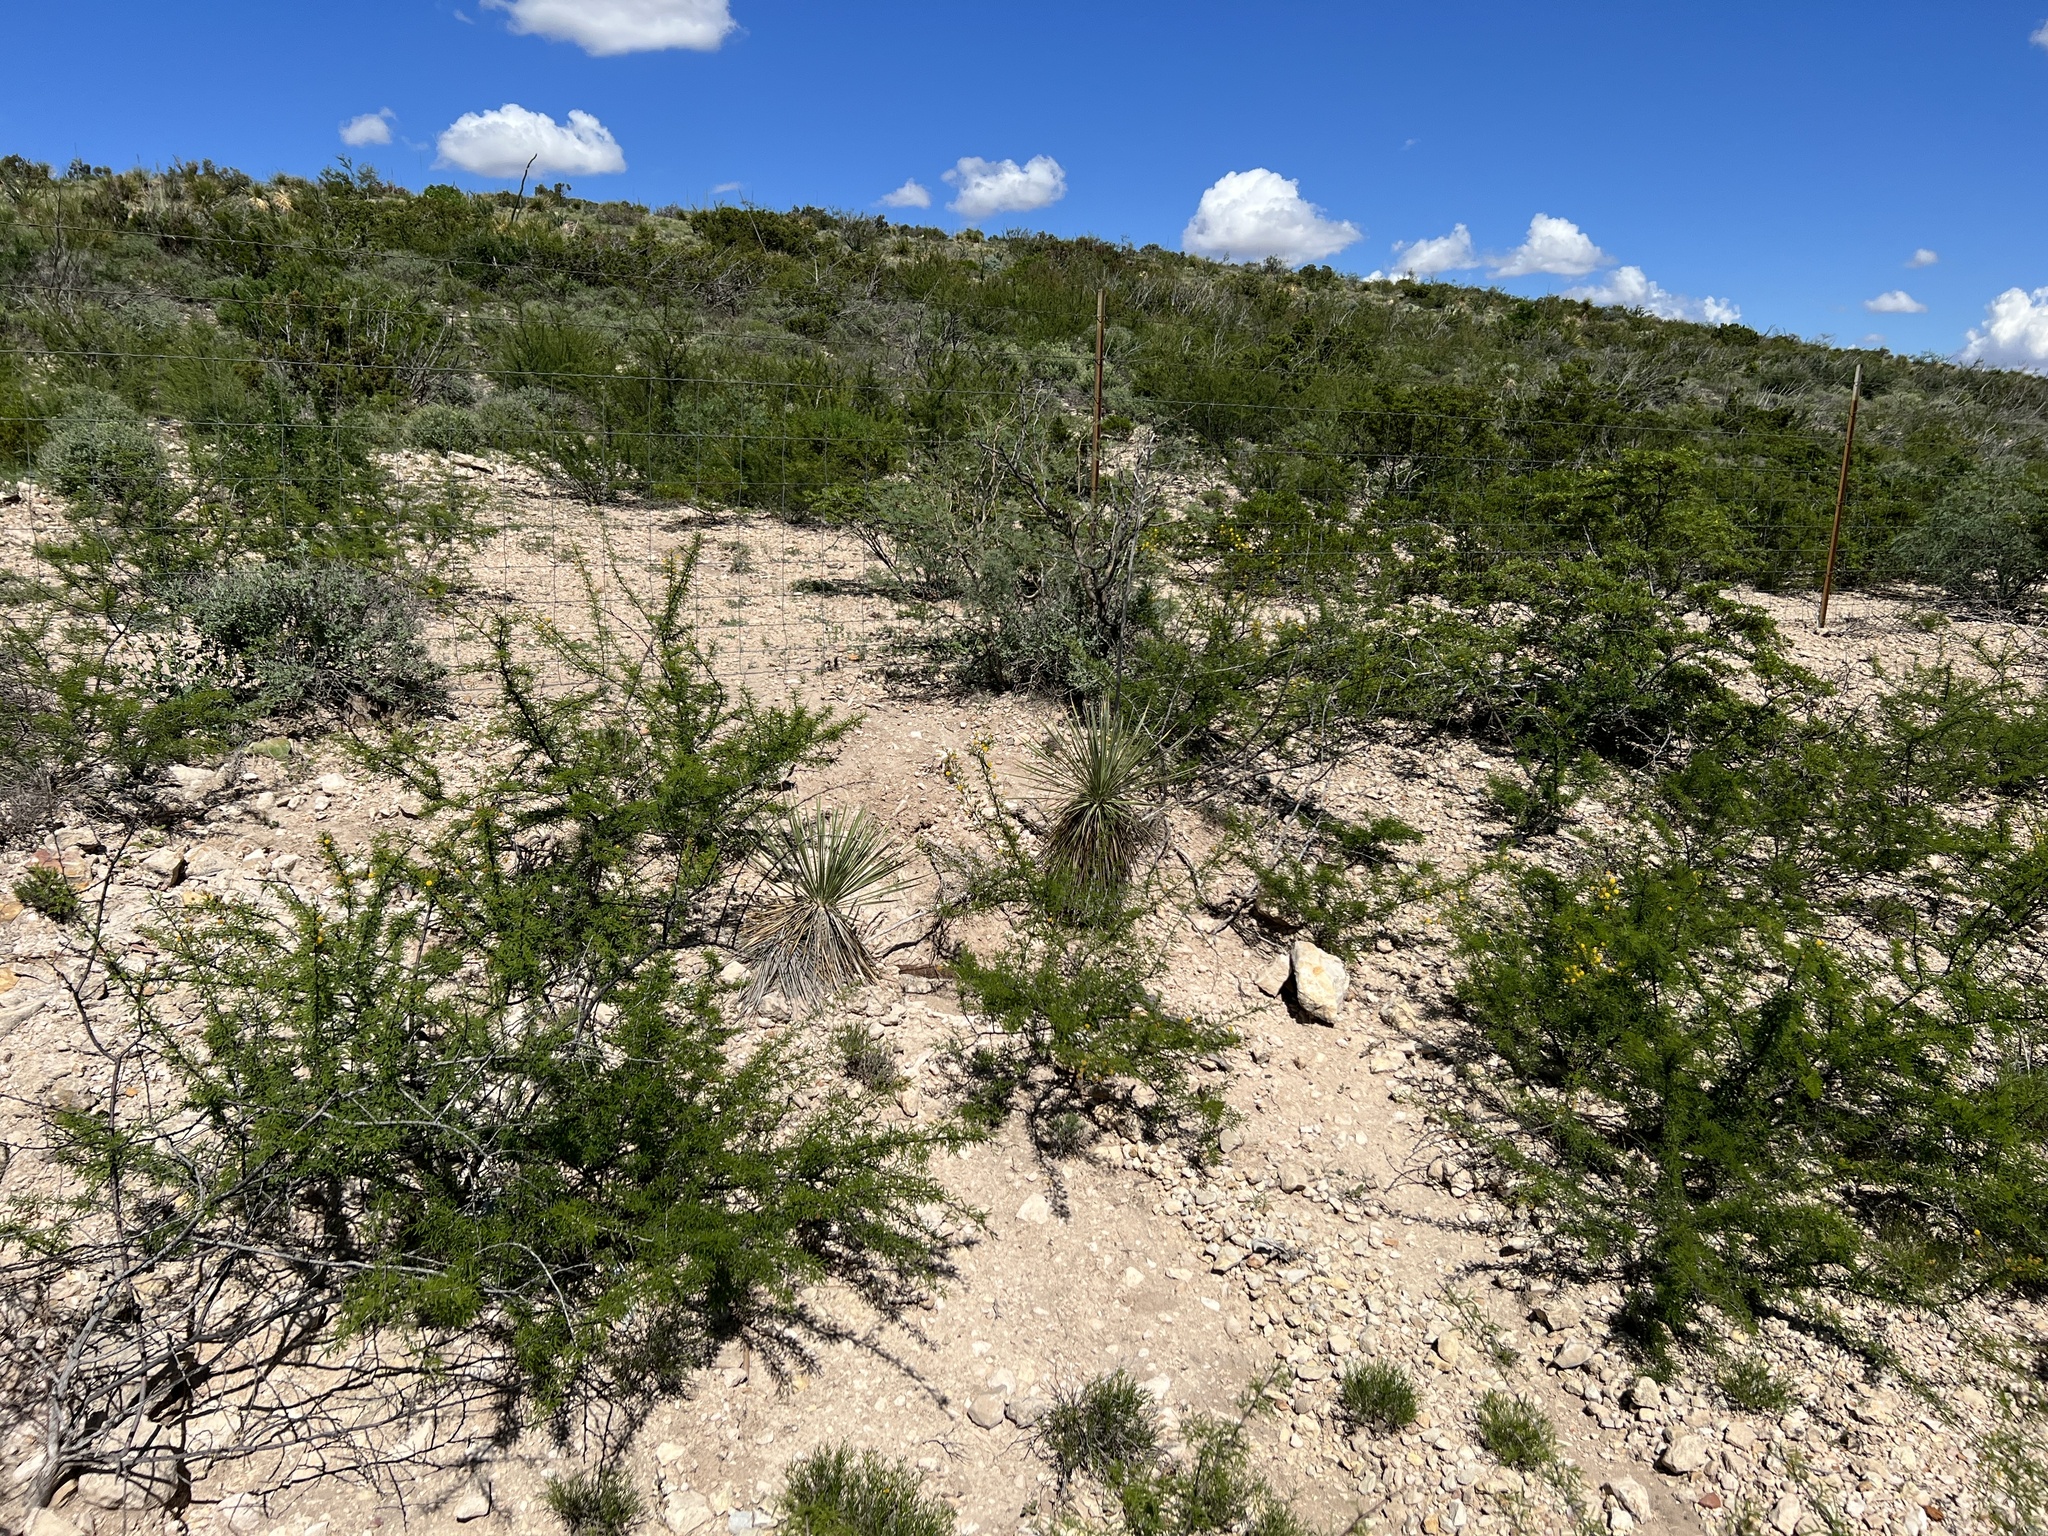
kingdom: Plantae
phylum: Tracheophyta
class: Liliopsida
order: Asparagales
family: Asparagaceae
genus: Yucca
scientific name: Yucca elata
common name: Palmella
